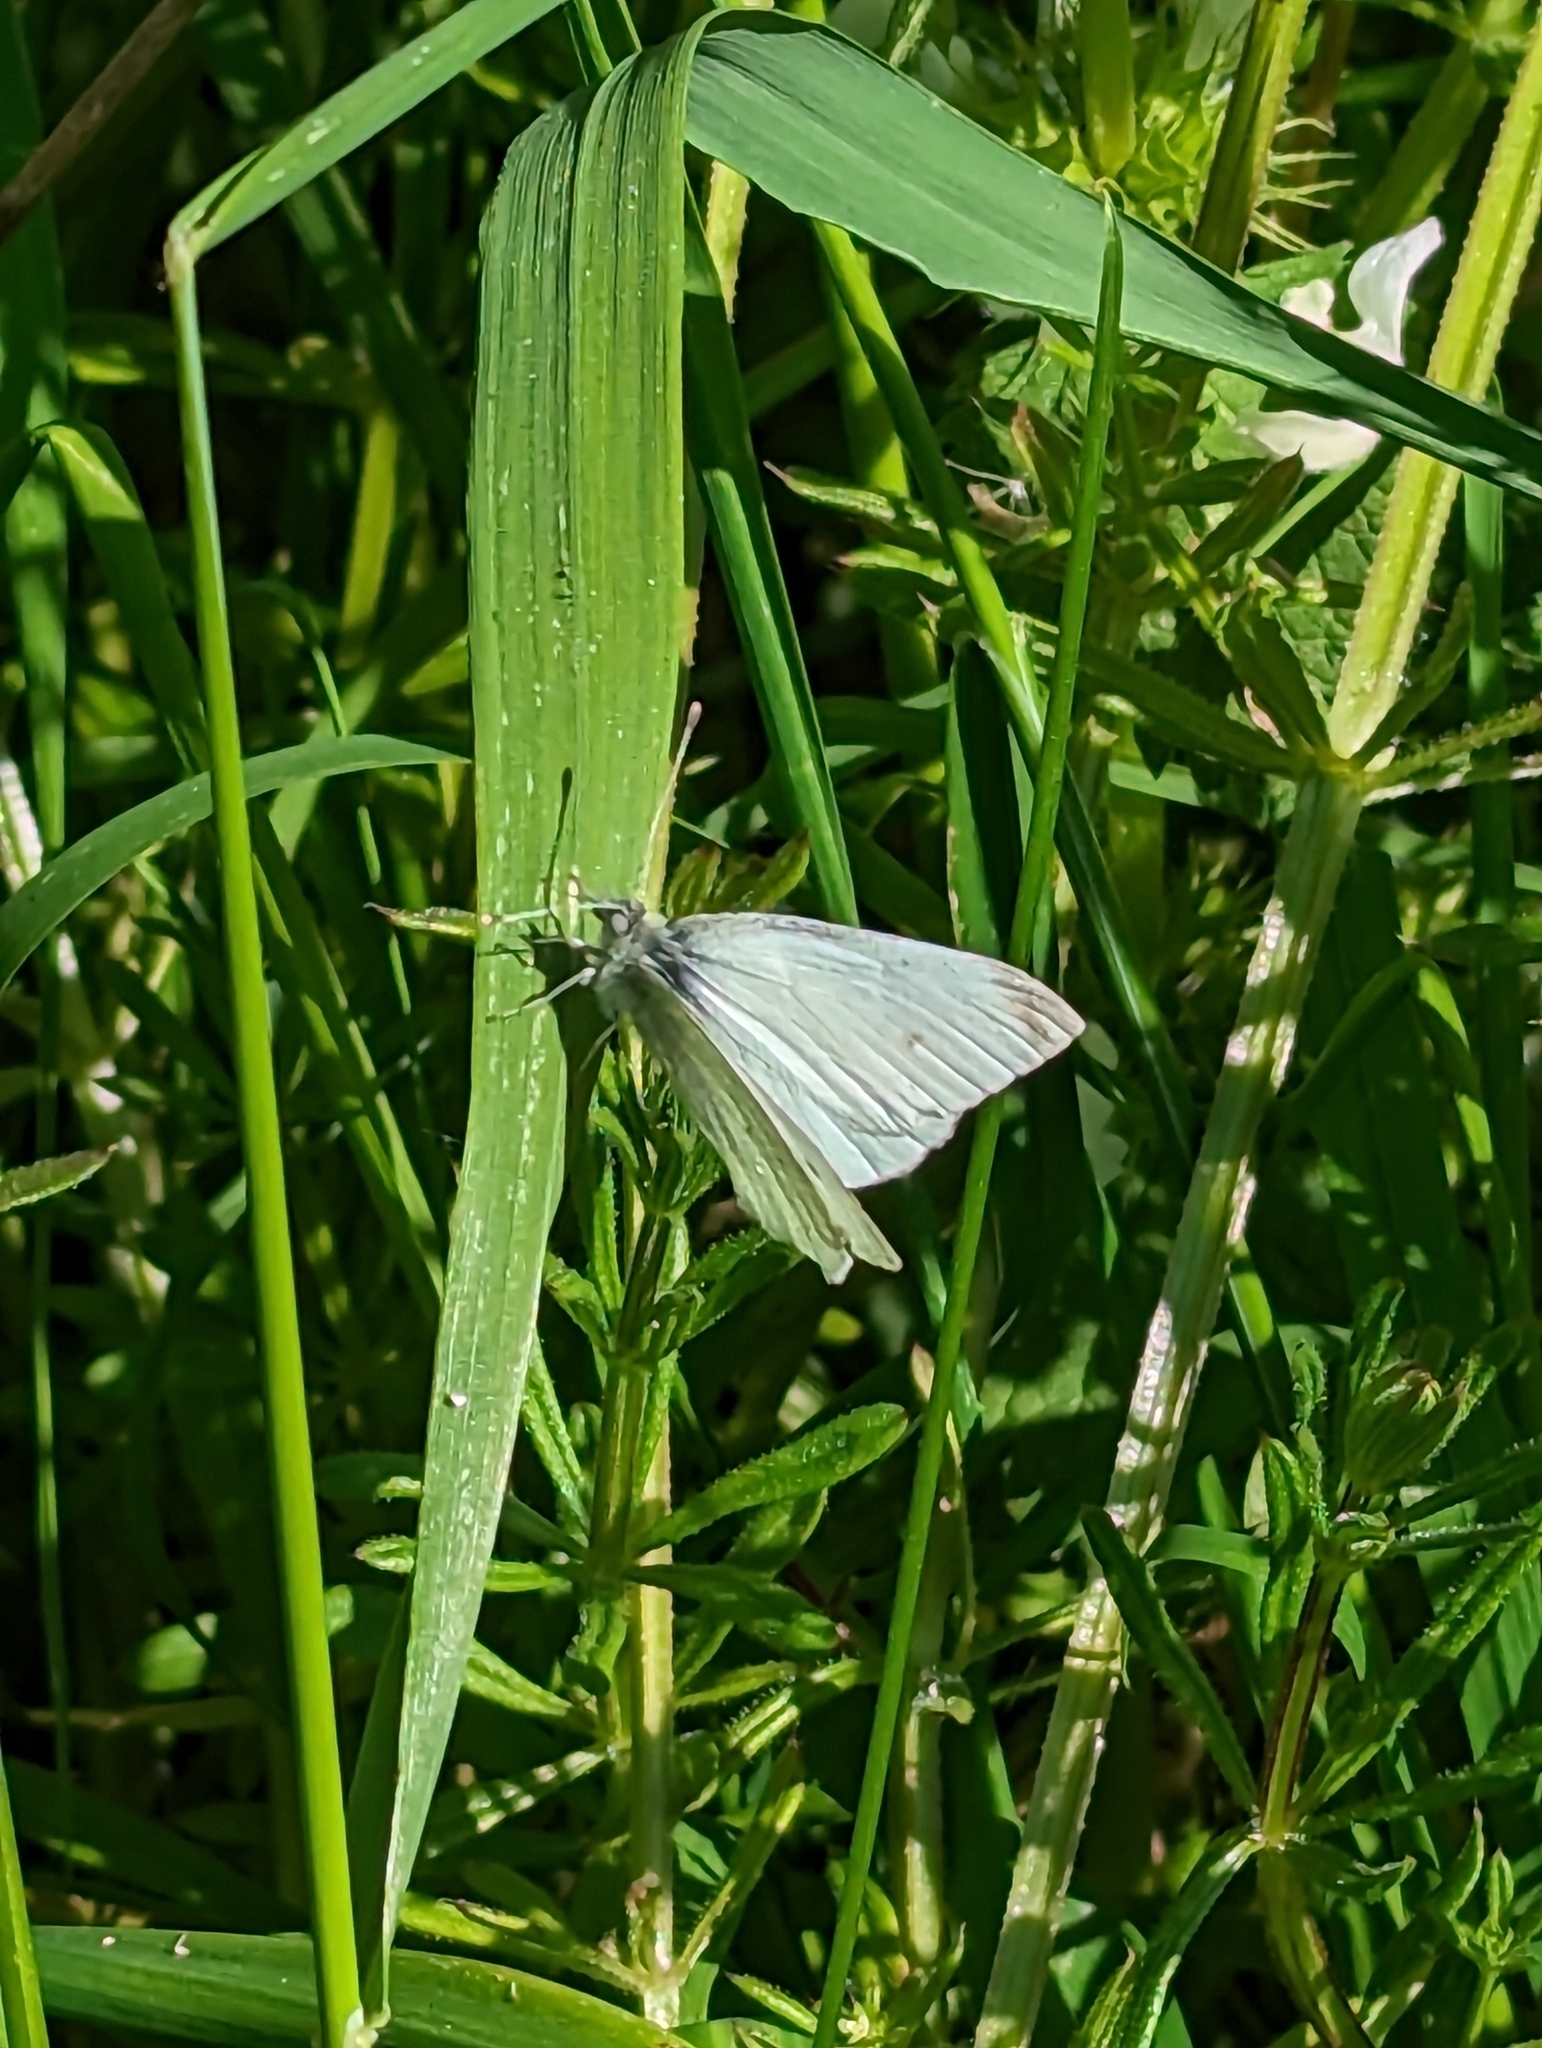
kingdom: Animalia
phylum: Arthropoda
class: Insecta
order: Lepidoptera
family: Pieridae
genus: Pieris
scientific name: Pieris rapae
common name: Small white
